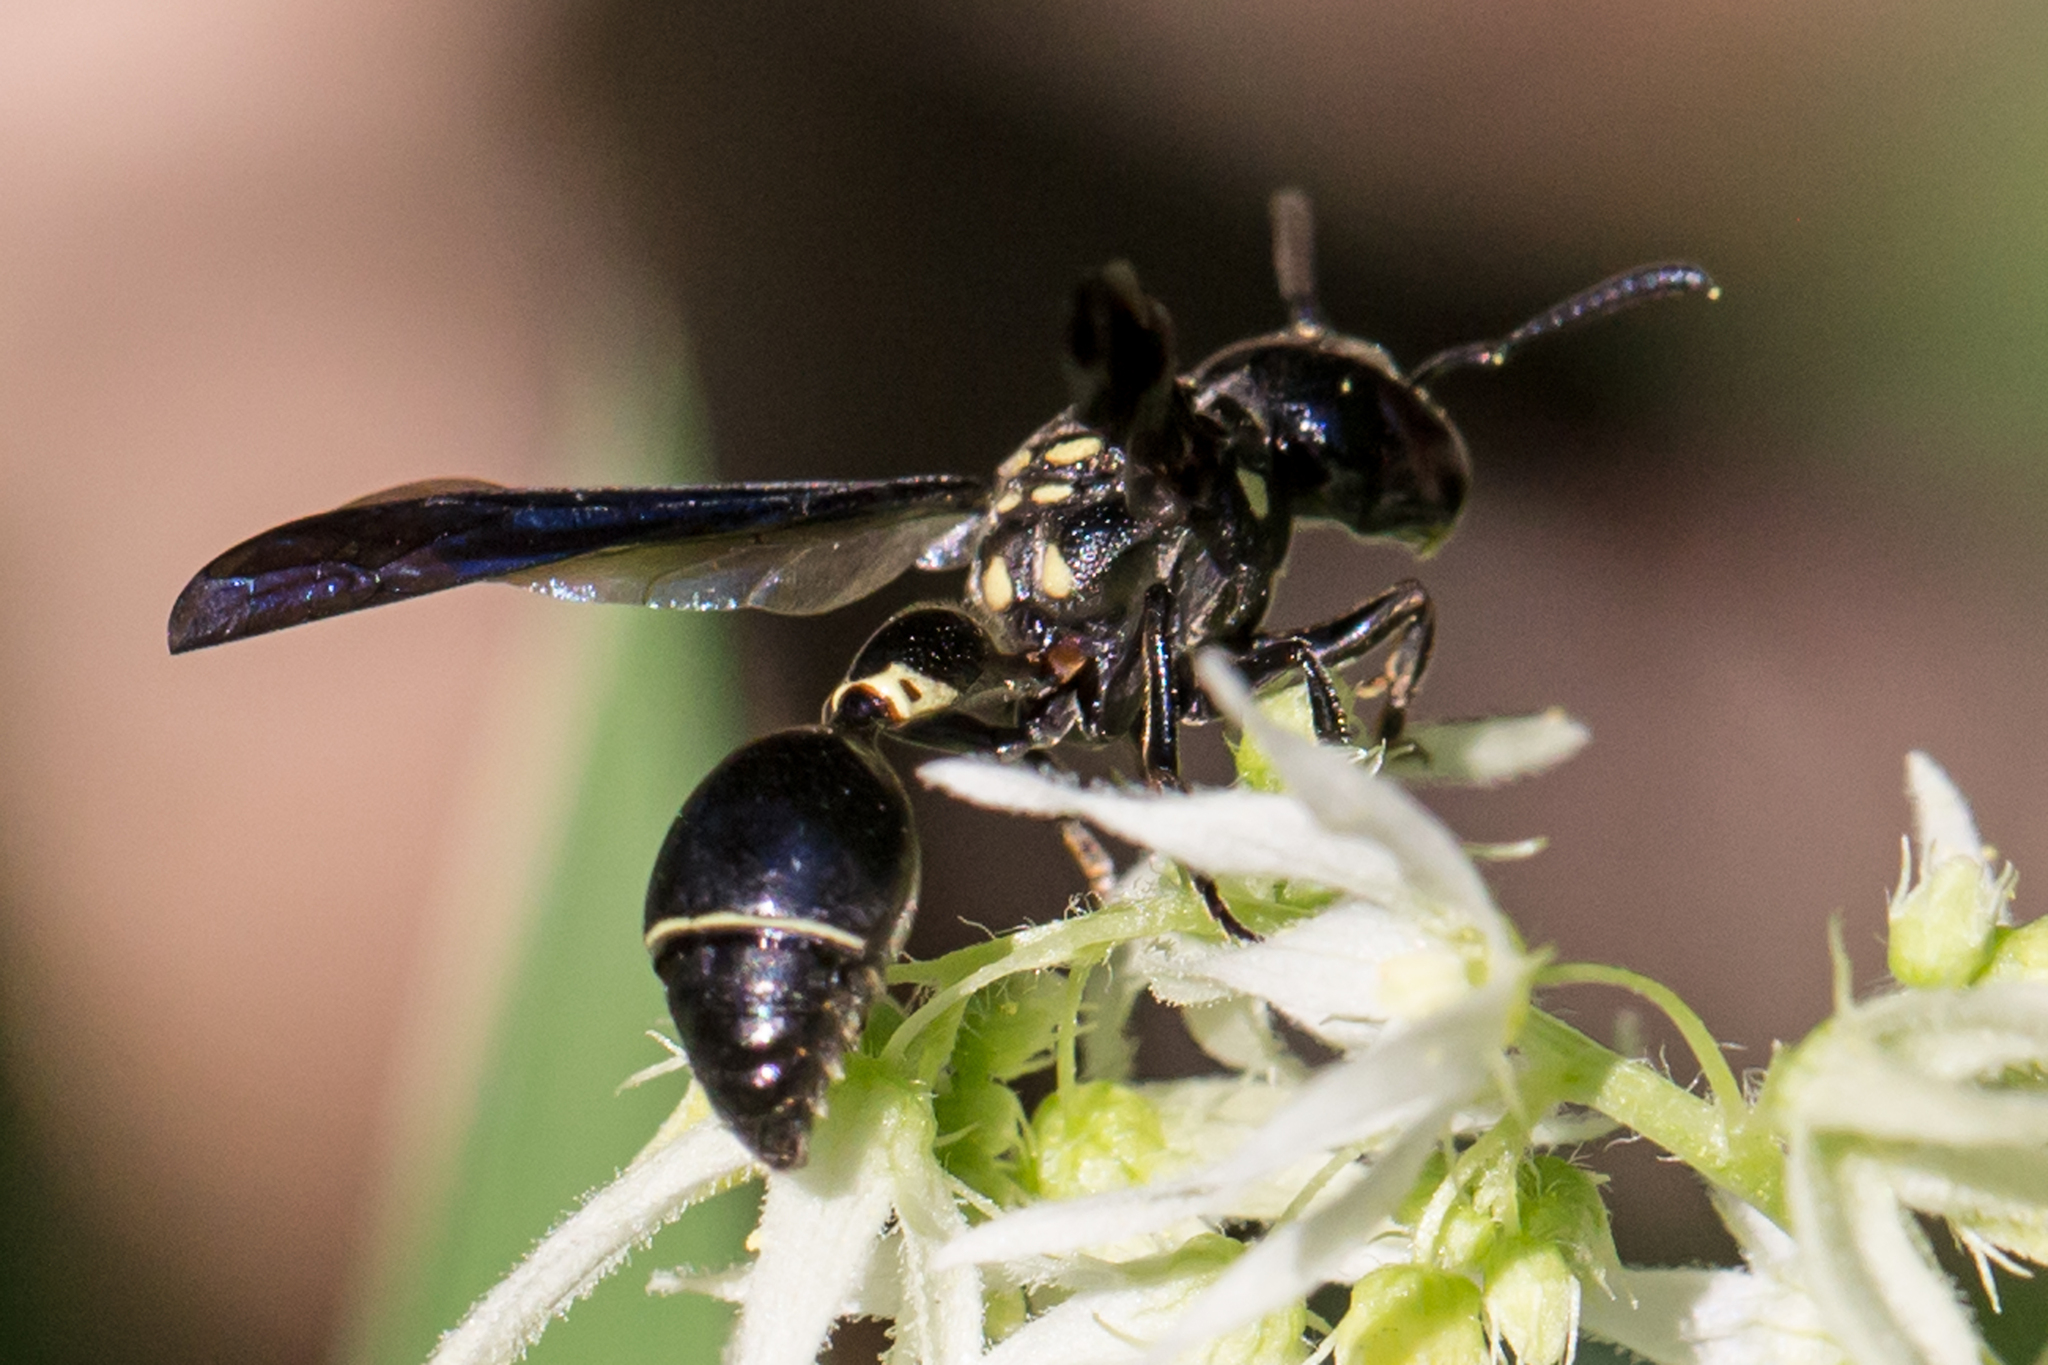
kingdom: Animalia
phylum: Arthropoda
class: Insecta
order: Hymenoptera
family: Eumenidae
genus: Zethus
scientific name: Zethus spinipes
